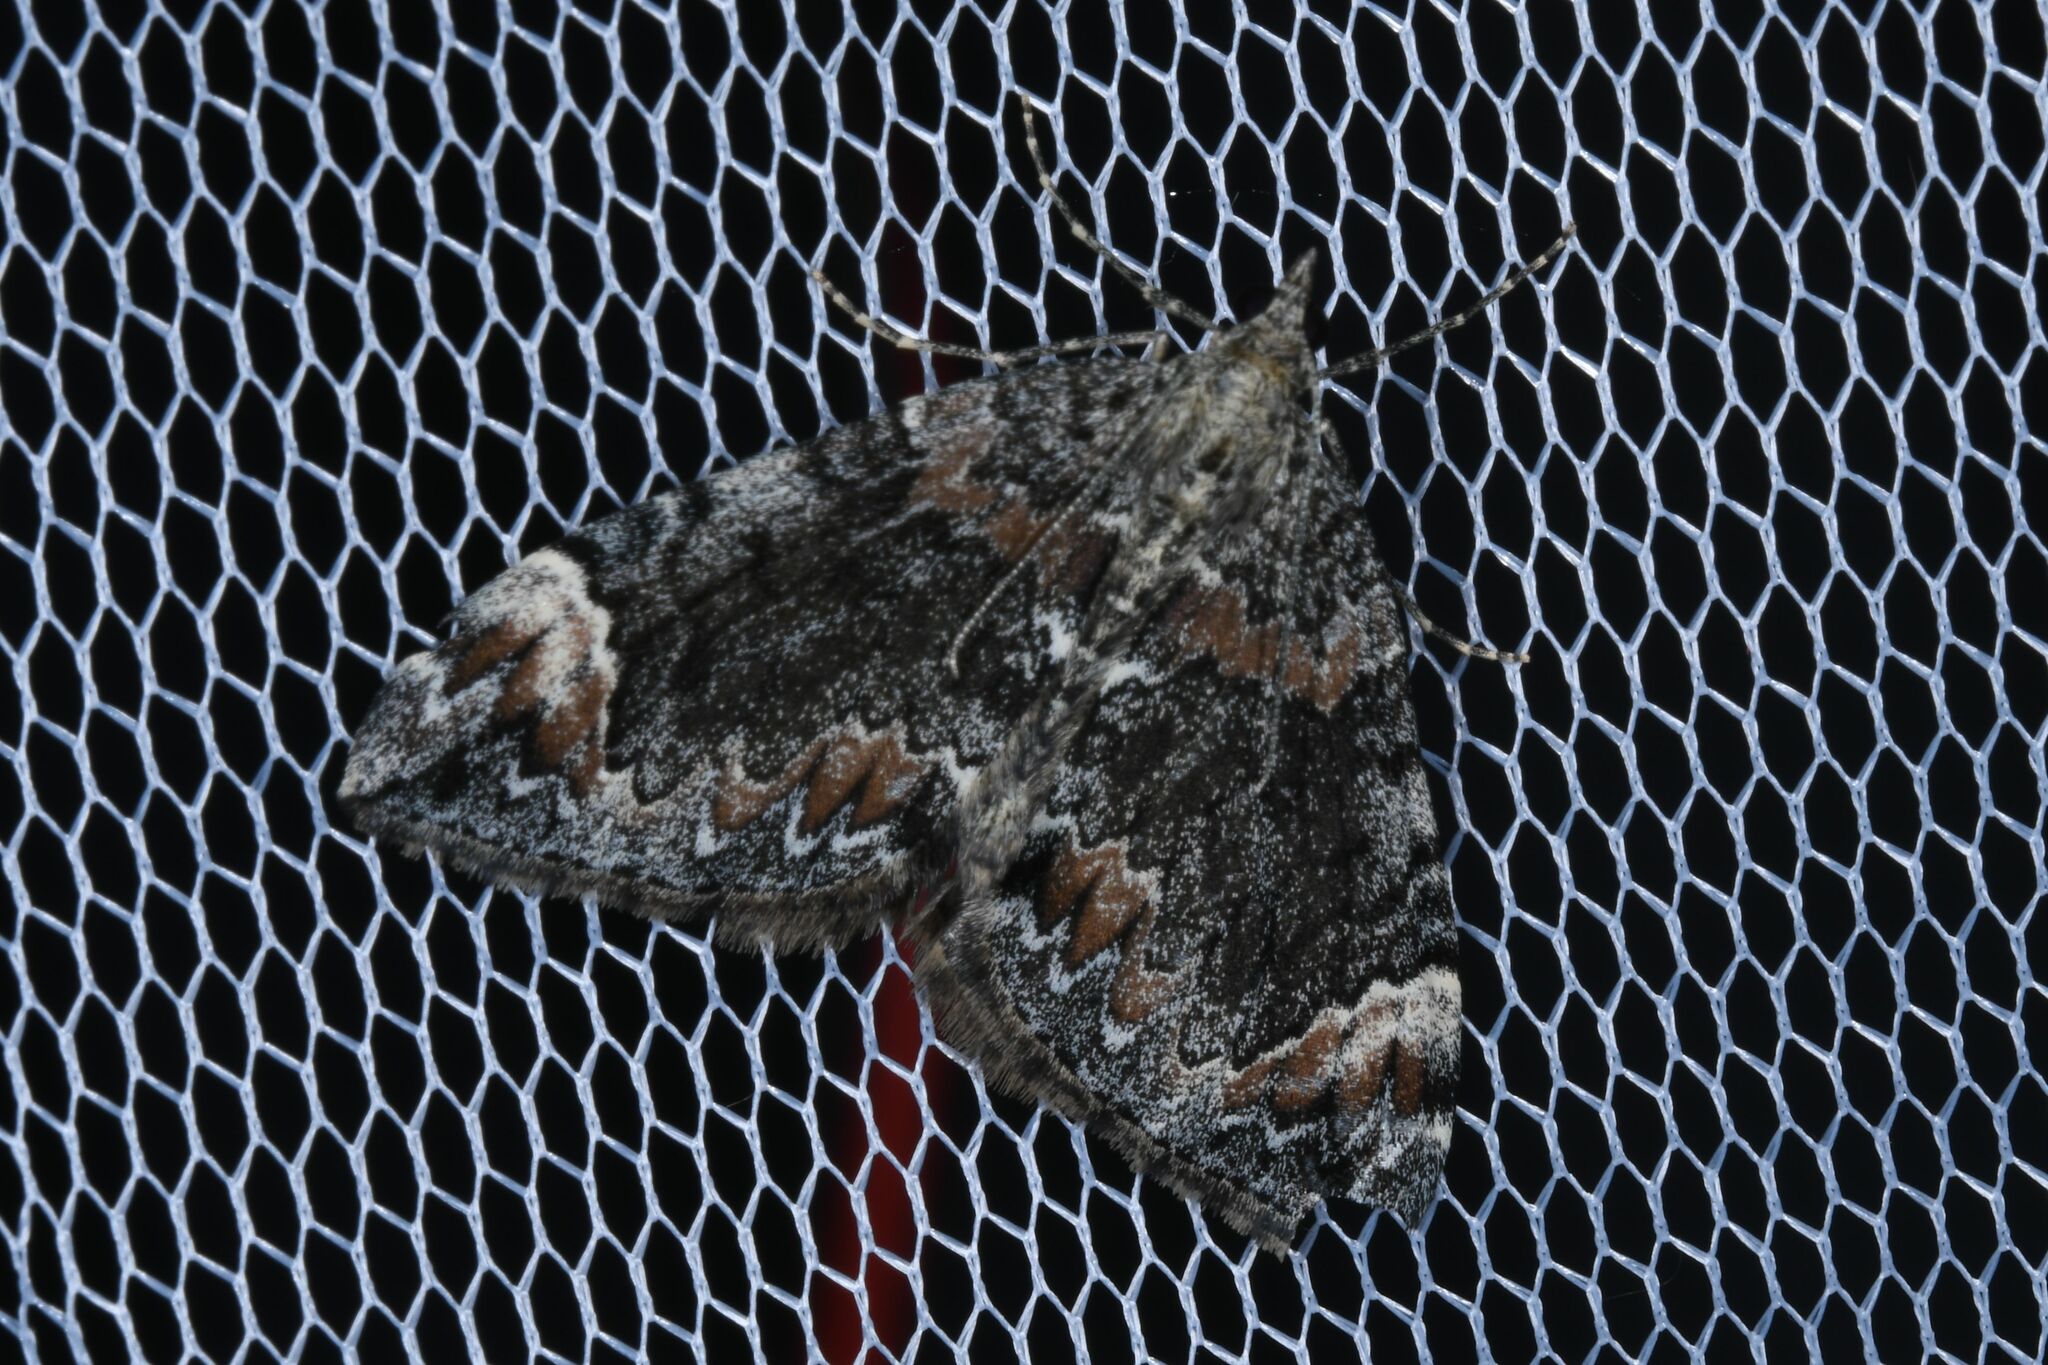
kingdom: Animalia
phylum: Arthropoda
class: Insecta
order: Lepidoptera
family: Geometridae
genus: Dysstroma
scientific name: Dysstroma citrata
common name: Dark marbled carpet
